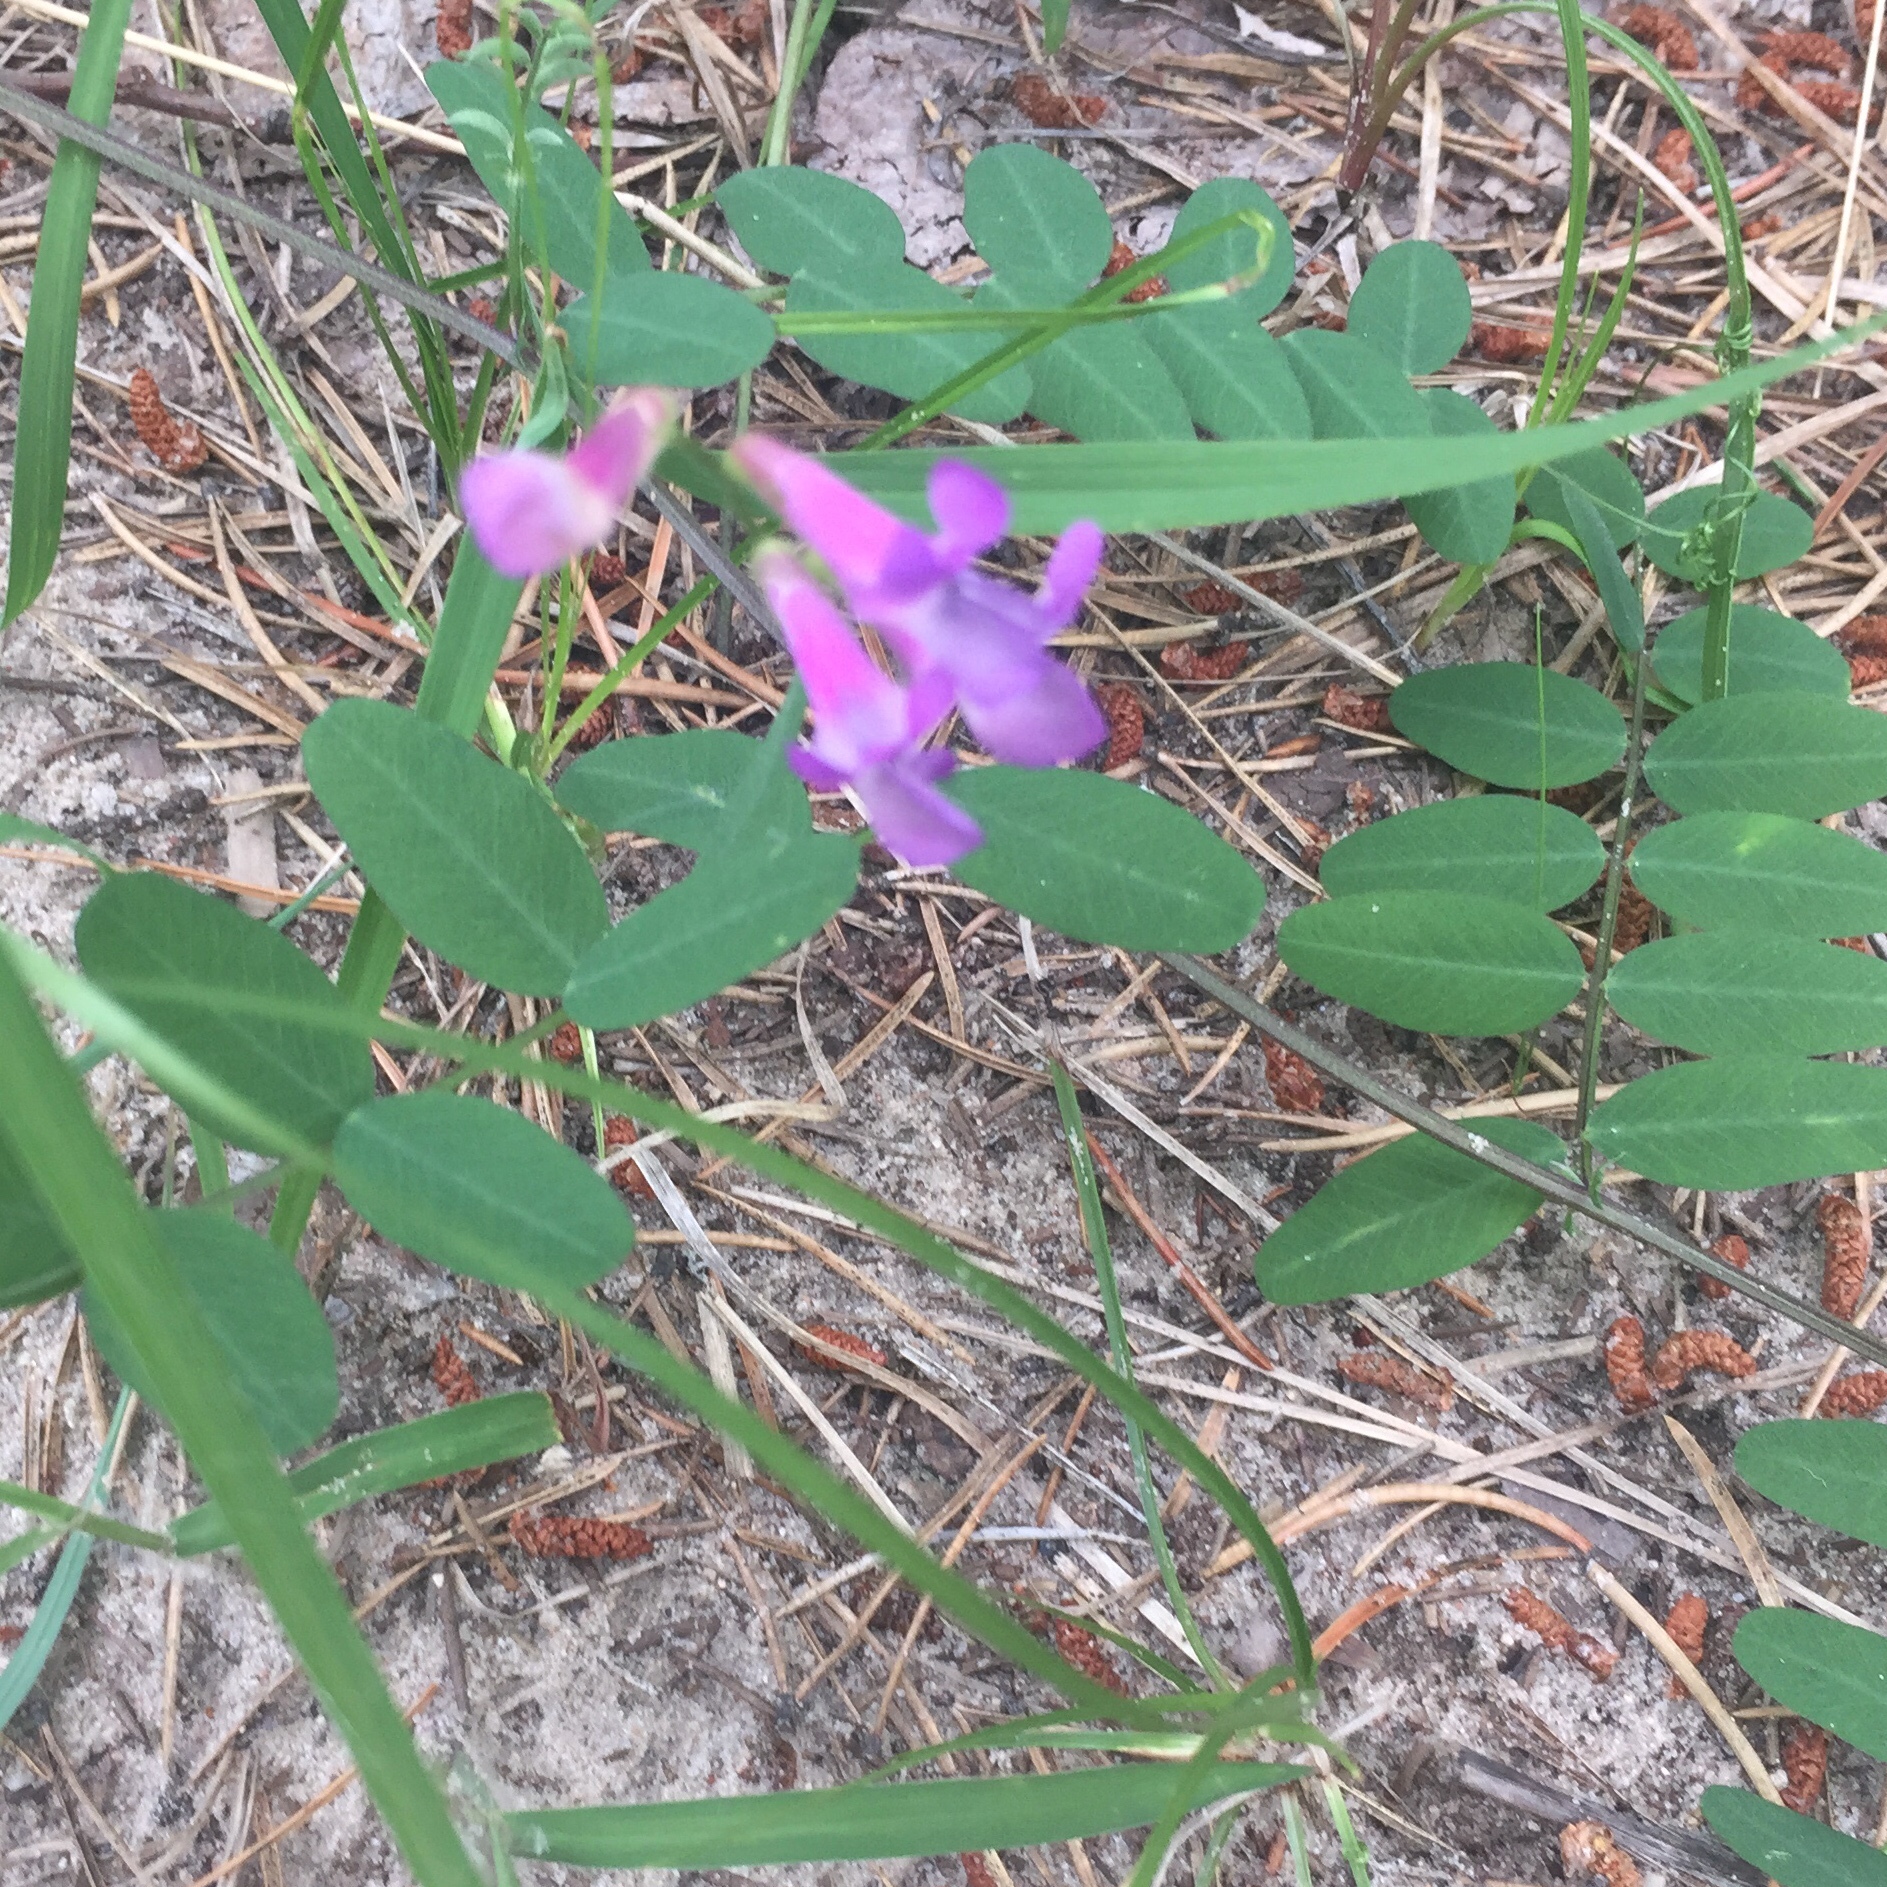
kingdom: Plantae
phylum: Tracheophyta
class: Magnoliopsida
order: Fabales
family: Fabaceae
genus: Vicia
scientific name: Vicia americana
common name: American vetch
